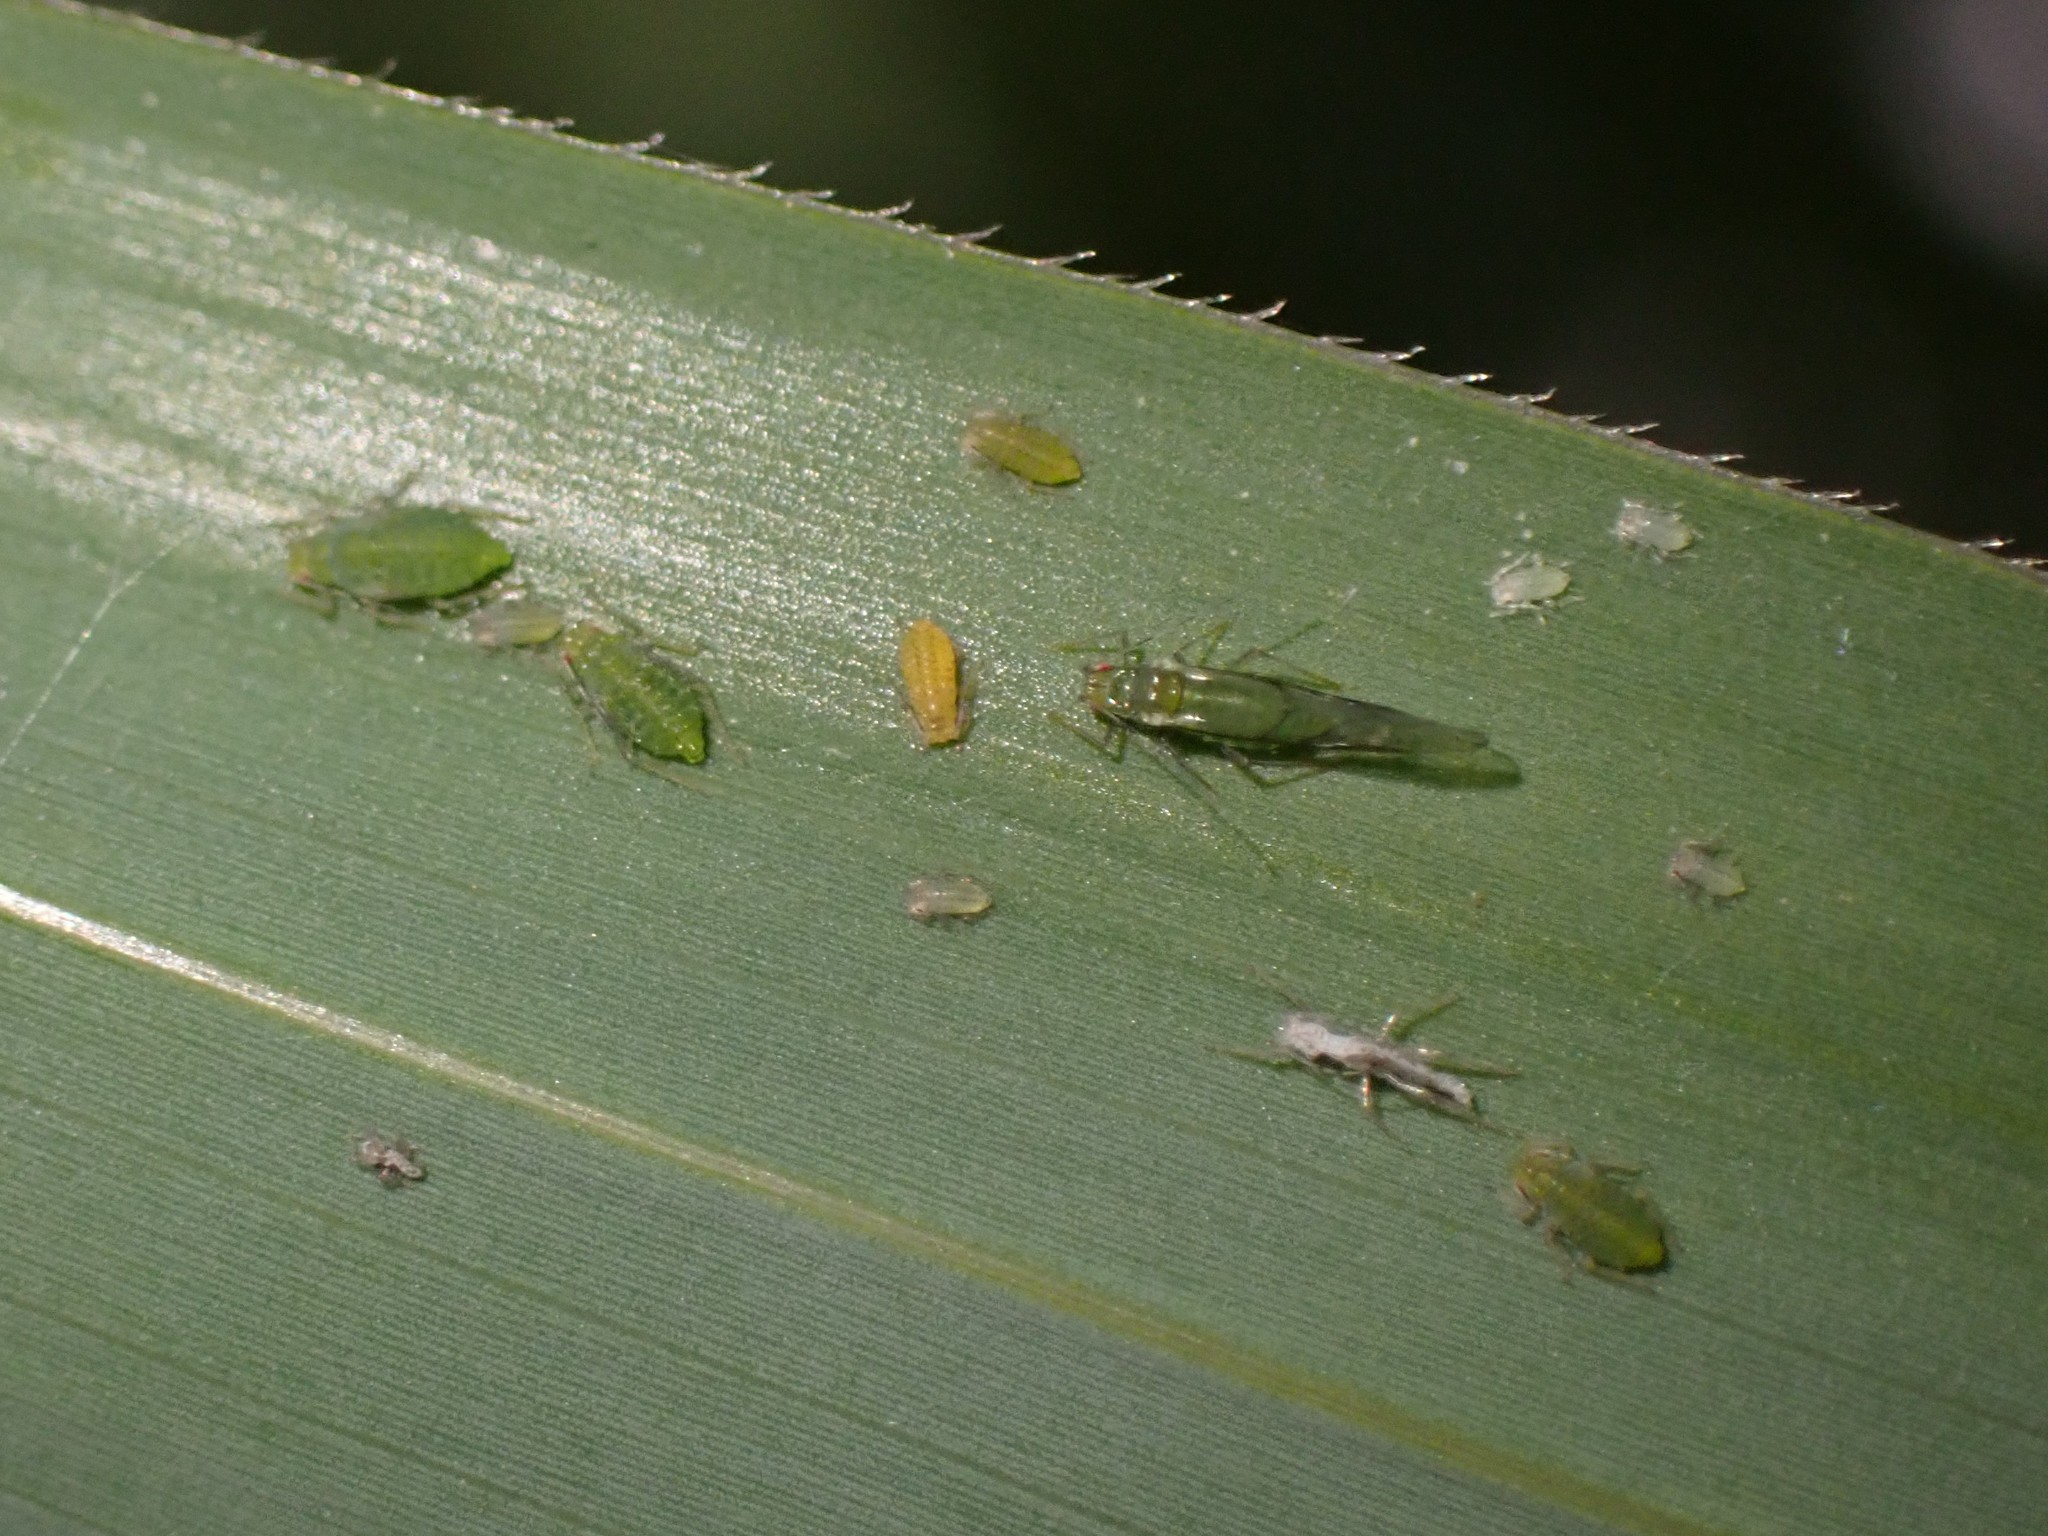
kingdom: Animalia
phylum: Arthropoda
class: Insecta
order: Hemiptera
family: Aphididae
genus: Takecallis
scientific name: Takecallis taiwana
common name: Aphid
